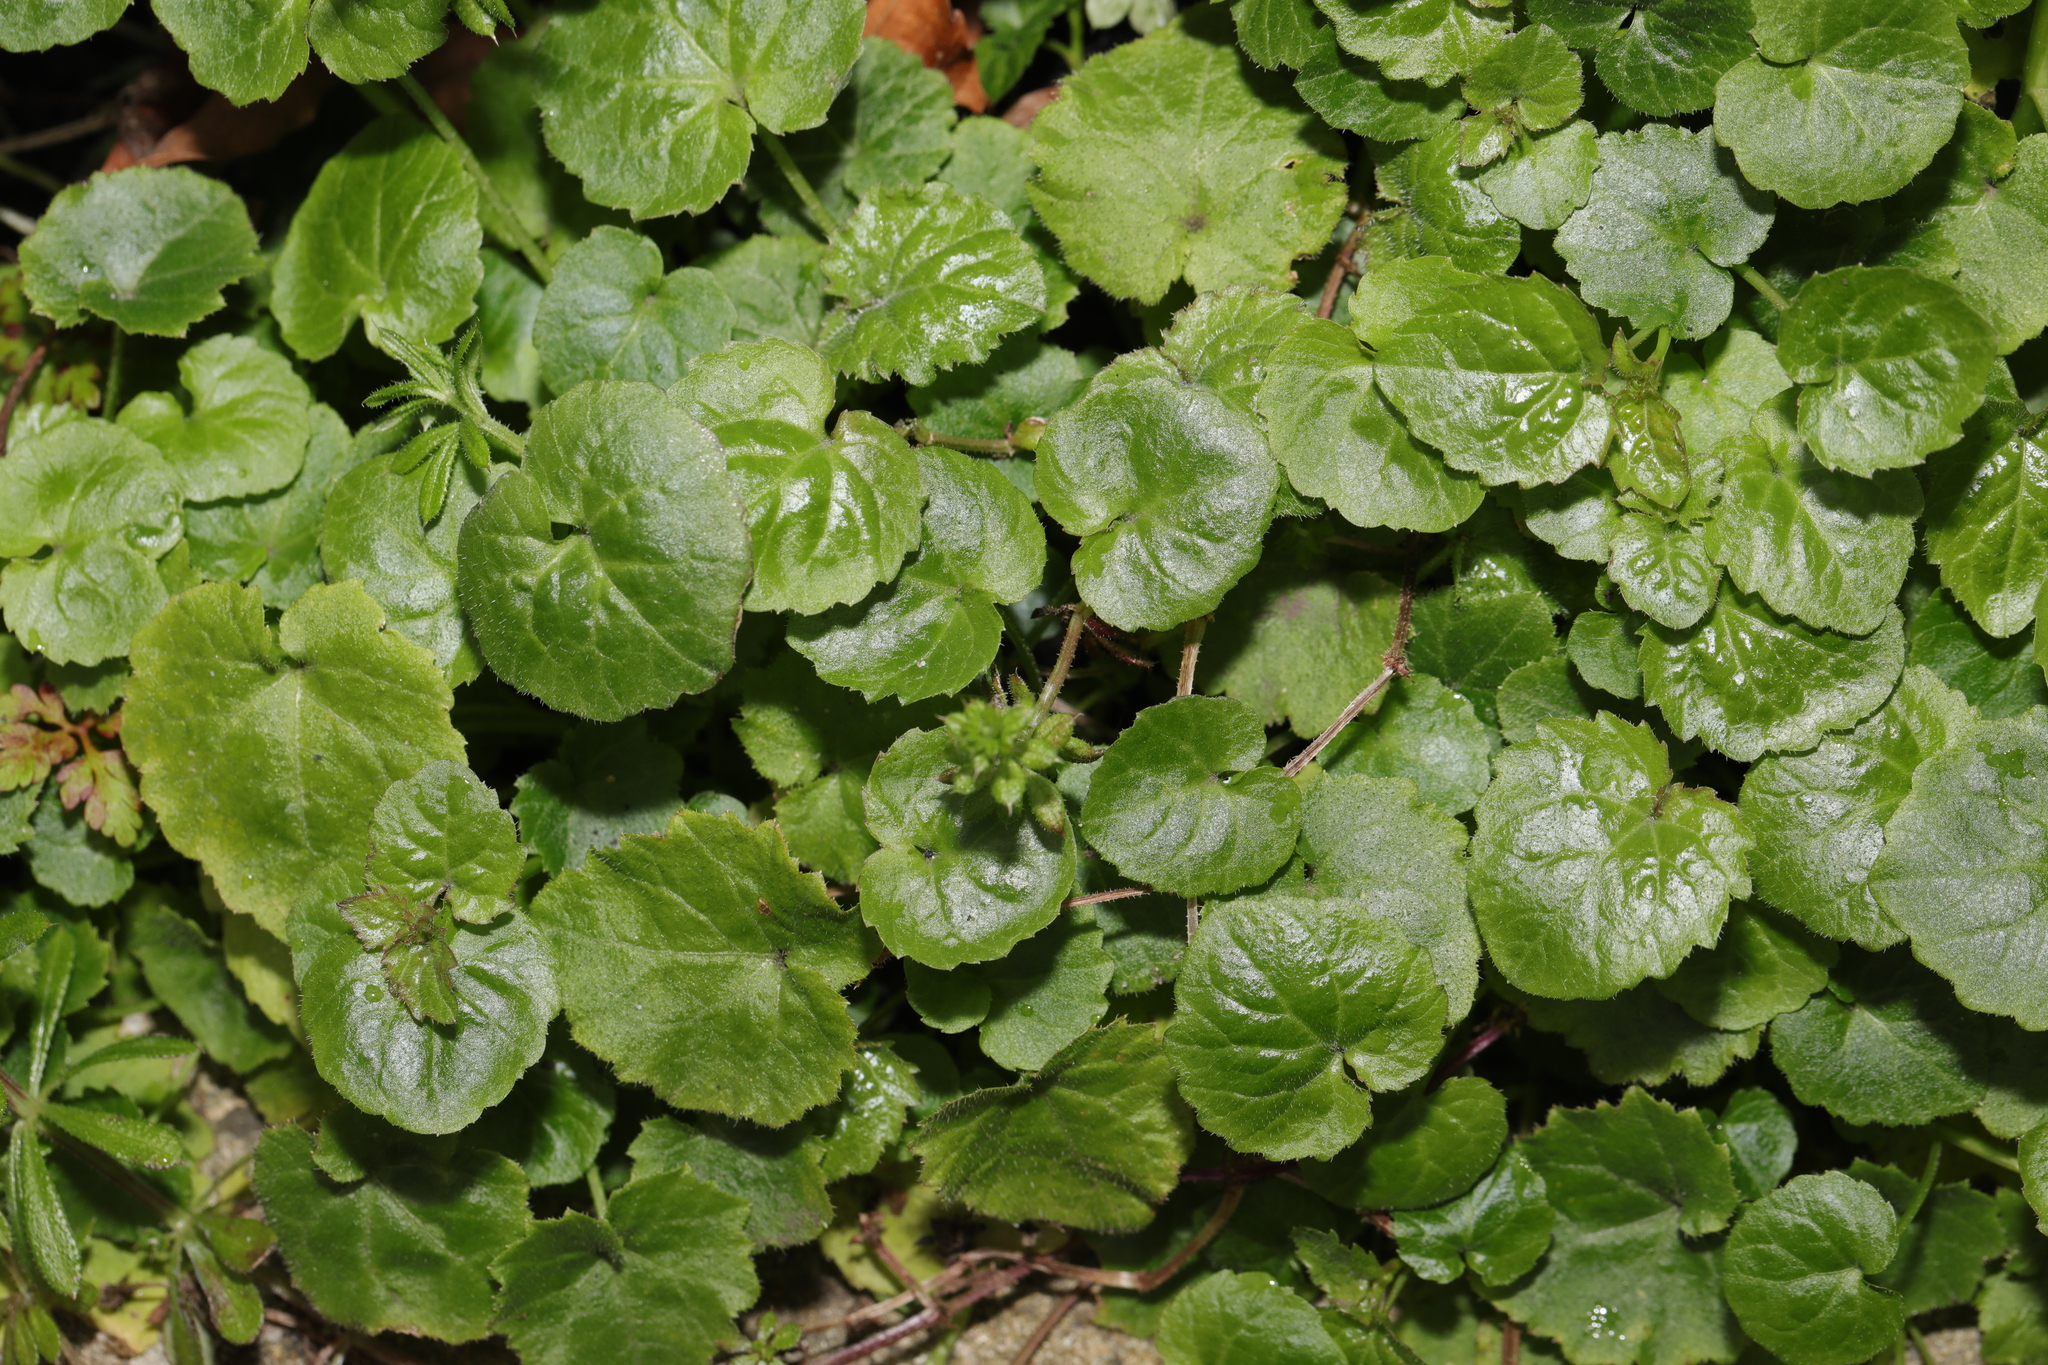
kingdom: Plantae
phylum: Tracheophyta
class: Magnoliopsida
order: Asterales
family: Campanulaceae
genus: Campanula
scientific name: Campanula poscharskyana
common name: Trailing bellflower
